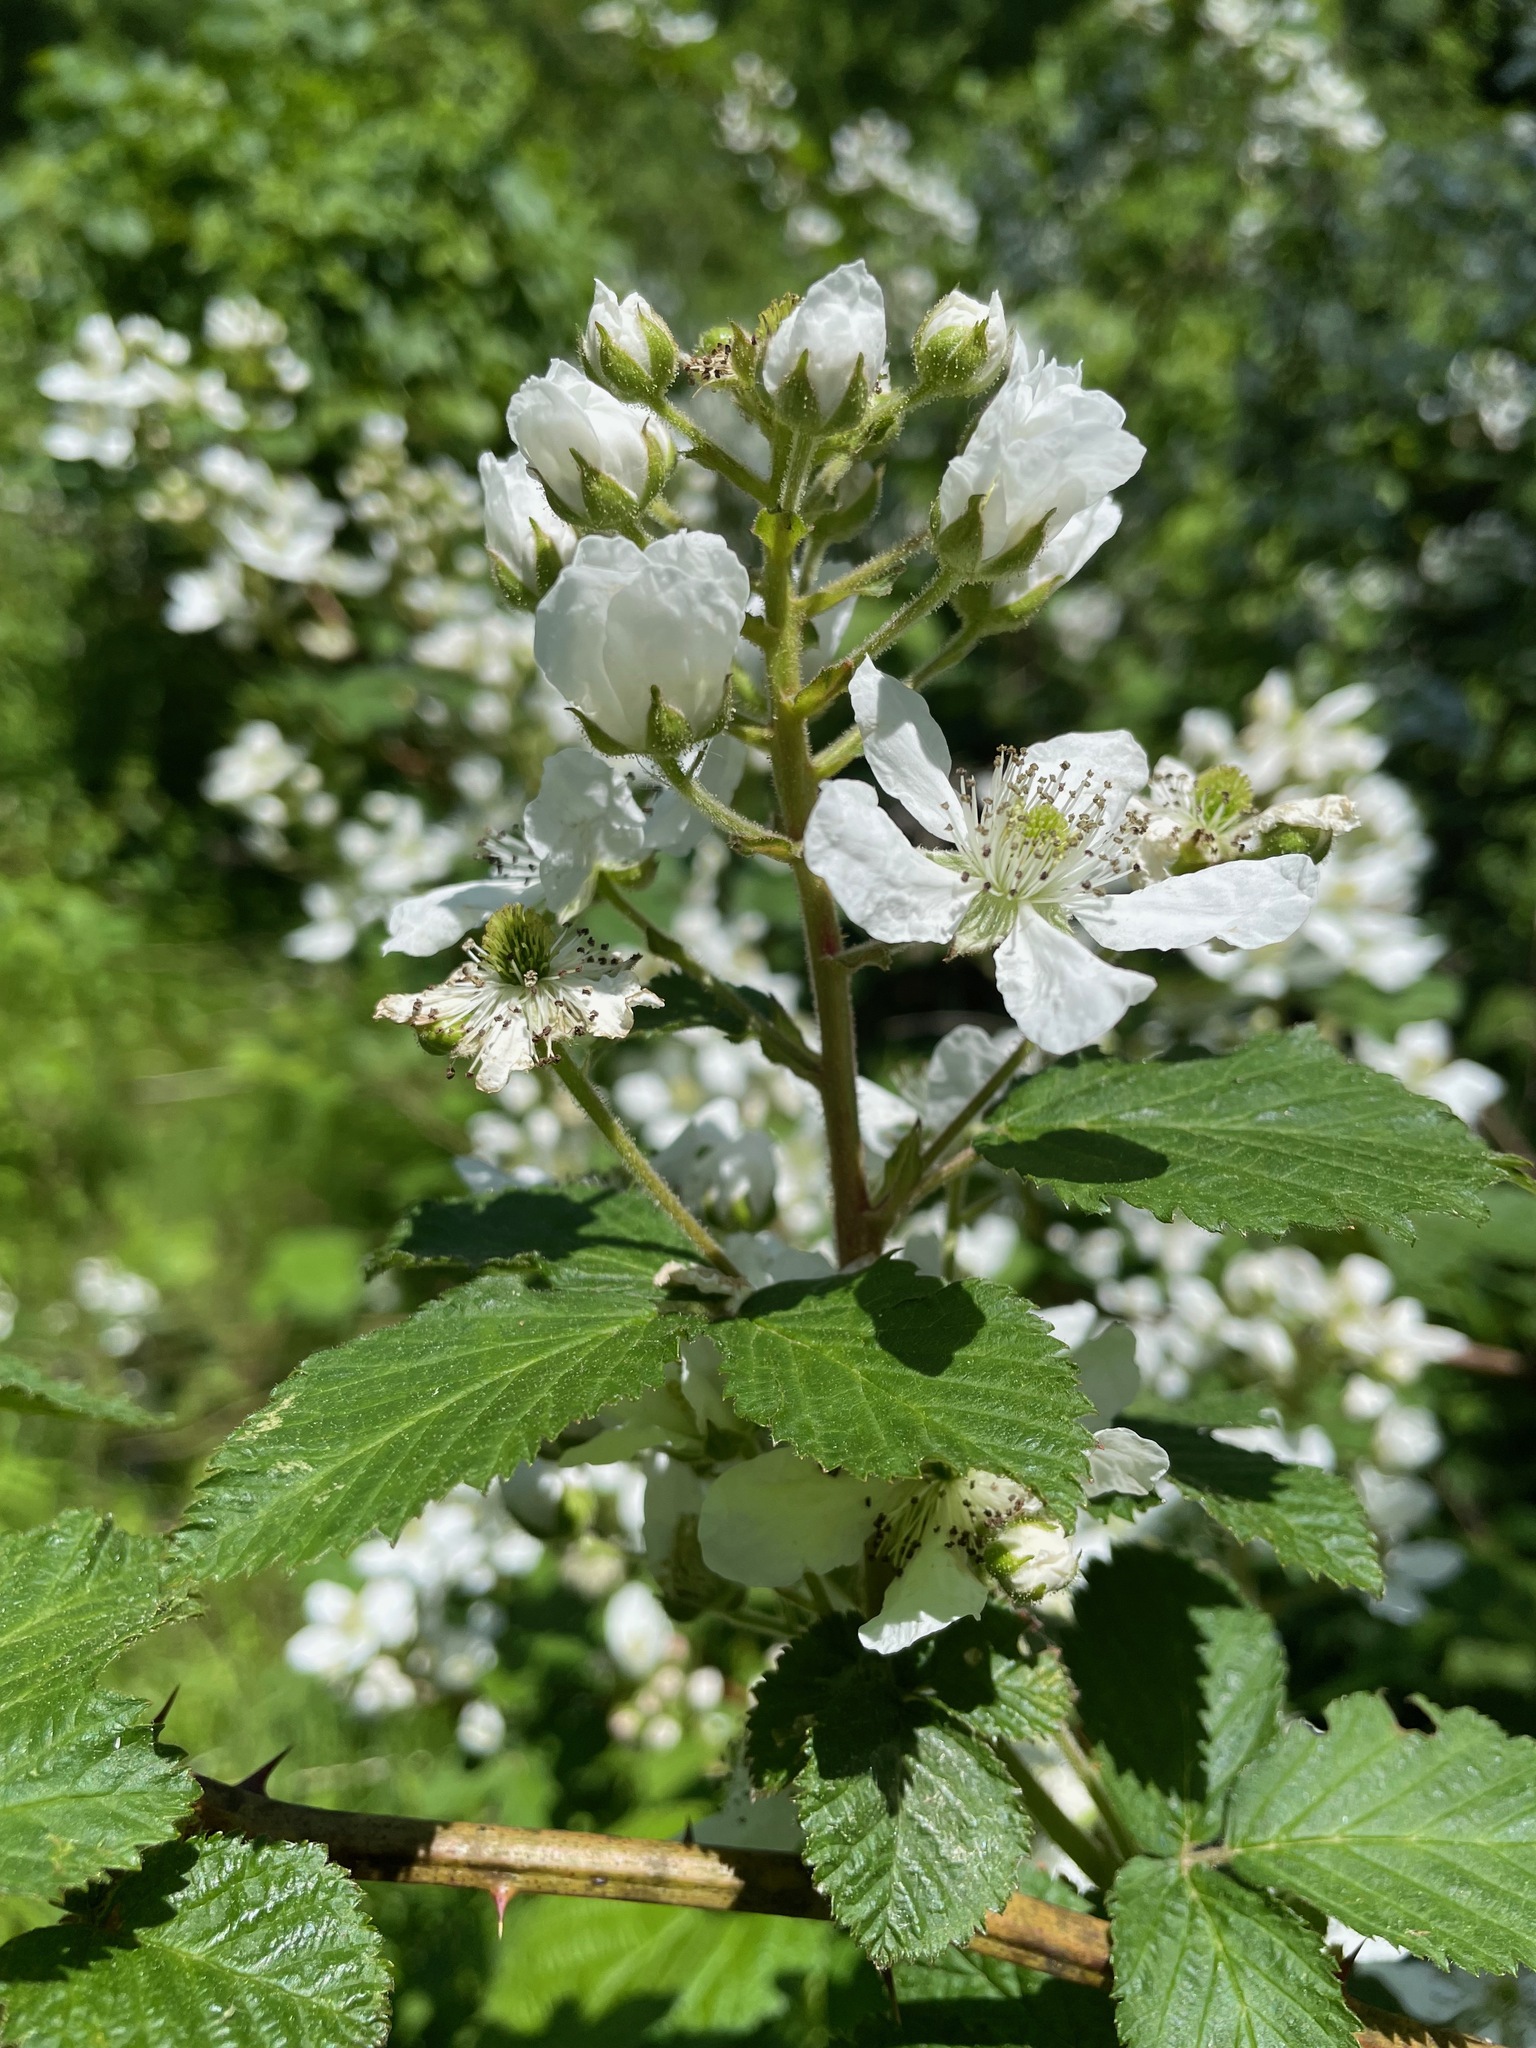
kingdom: Plantae
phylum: Tracheophyta
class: Magnoliopsida
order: Rosales
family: Rosaceae
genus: Rubus
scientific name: Rubus allegheniensis
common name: Allegheny blackberry
